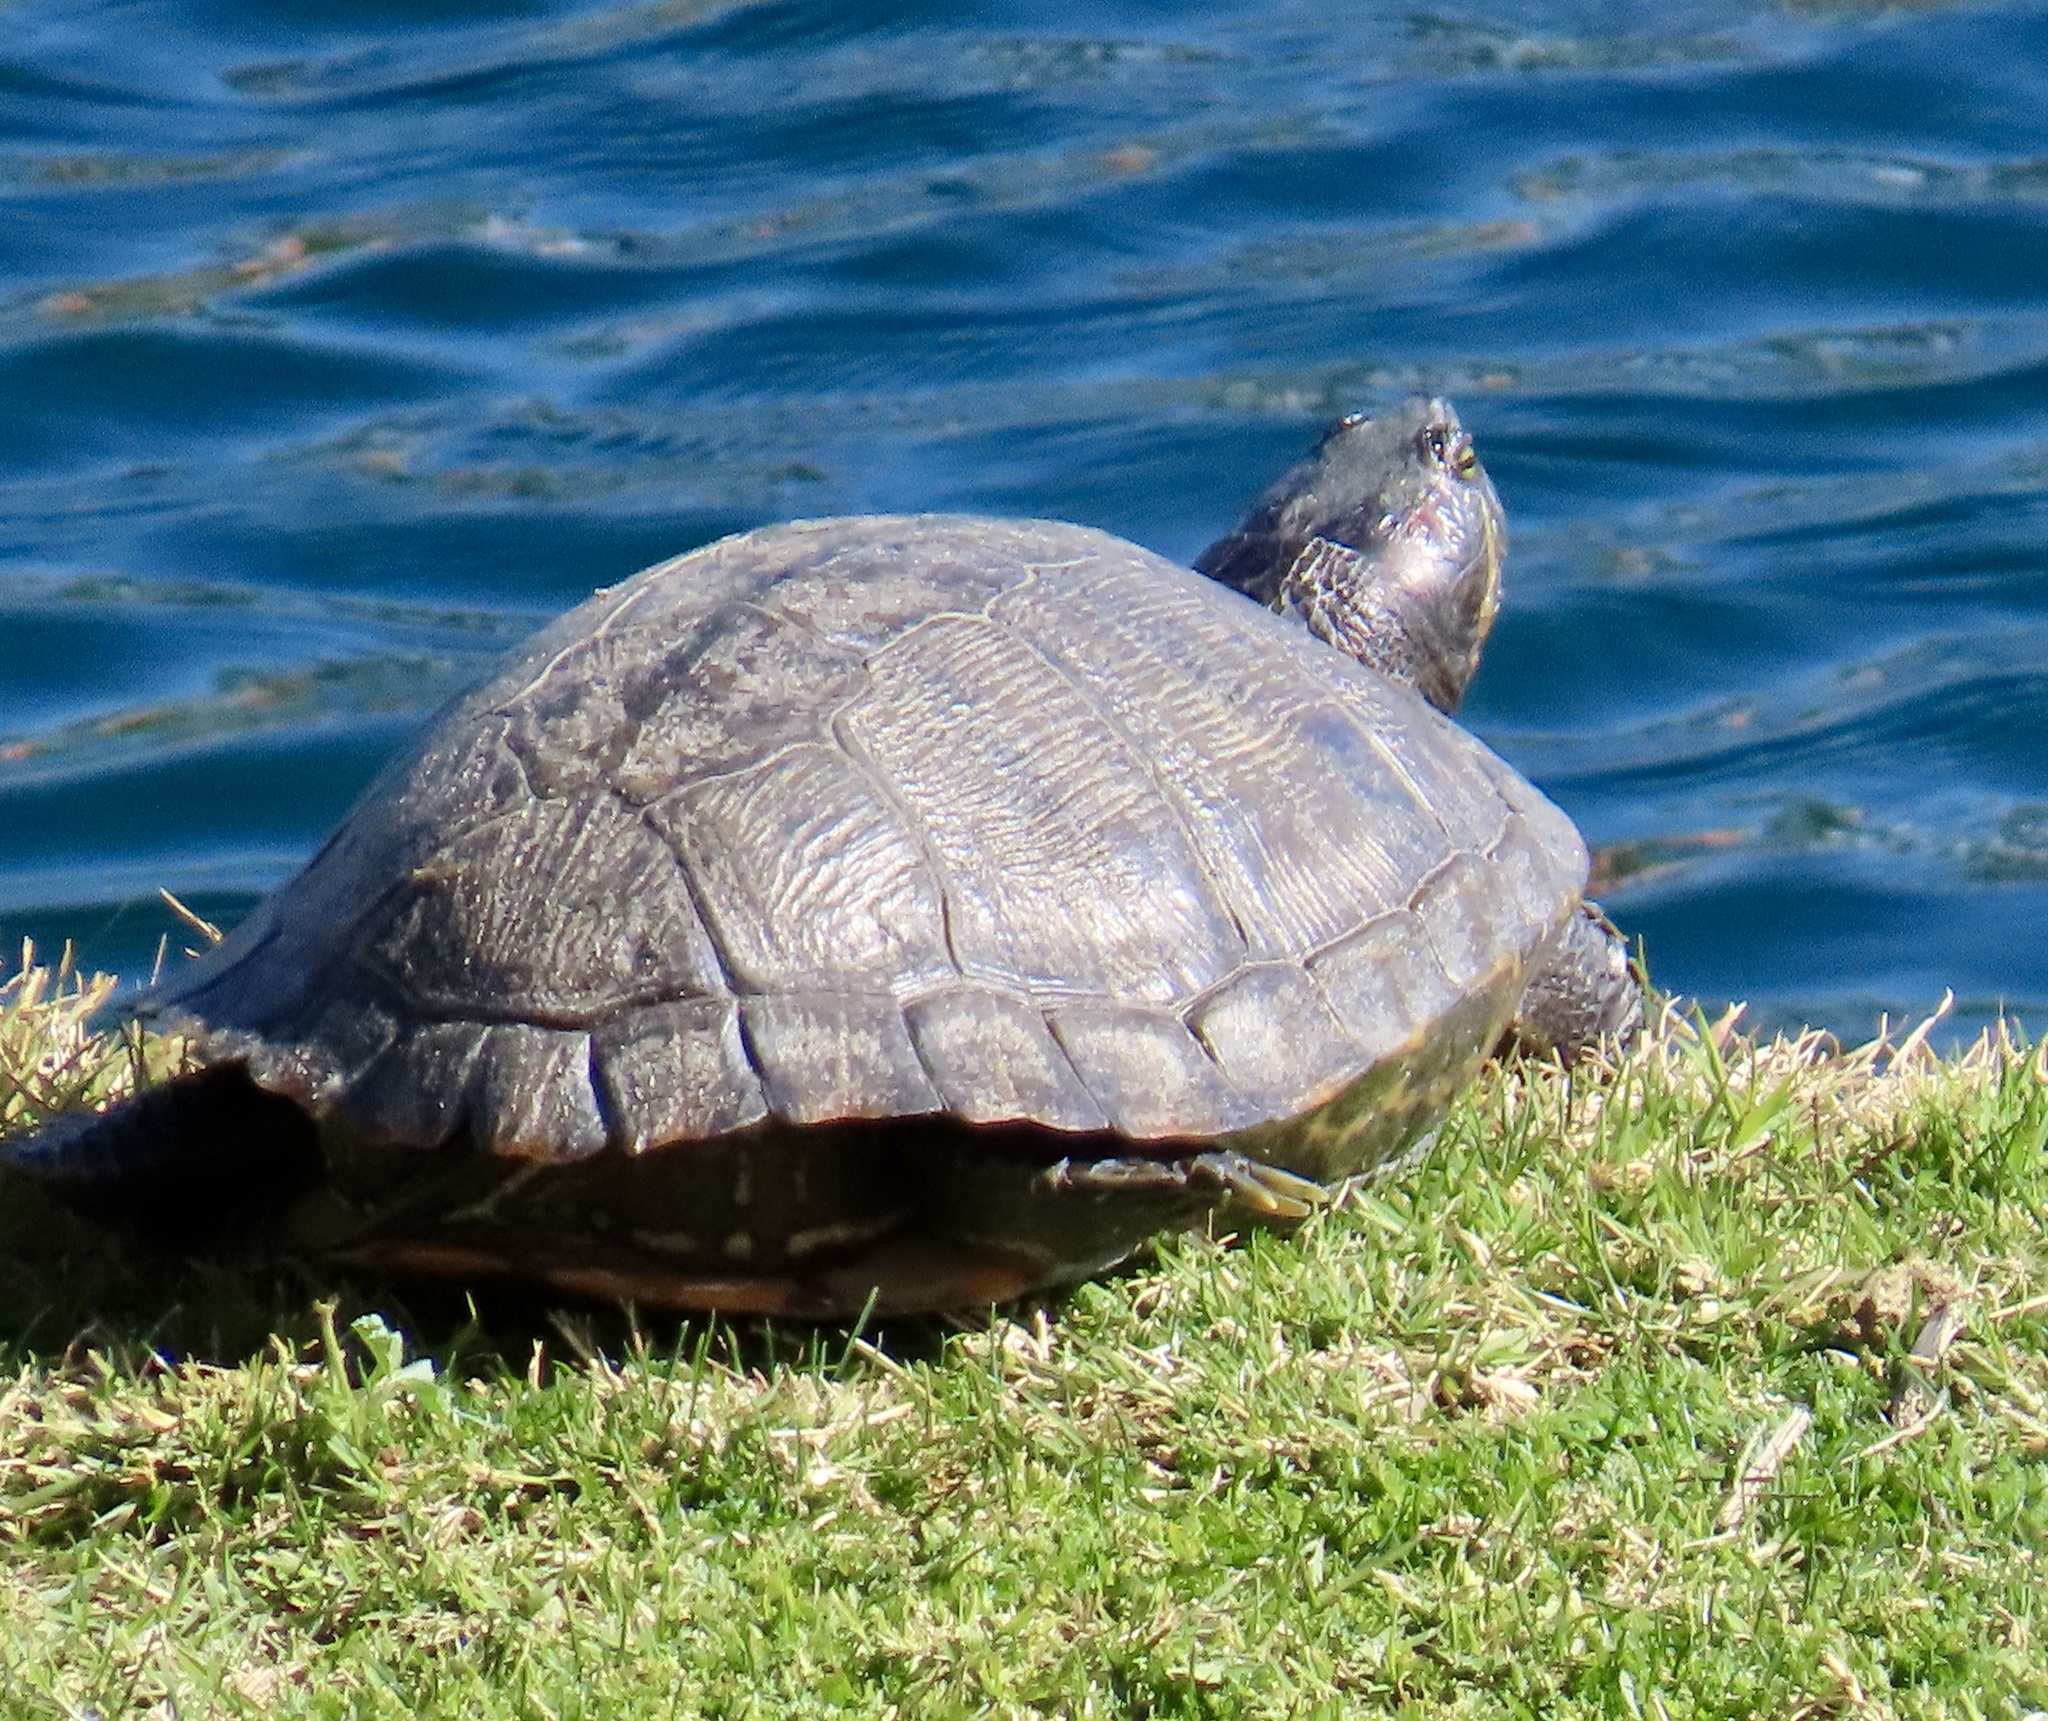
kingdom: Animalia
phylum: Chordata
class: Testudines
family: Emydidae
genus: Trachemys
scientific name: Trachemys scripta
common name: Slider
